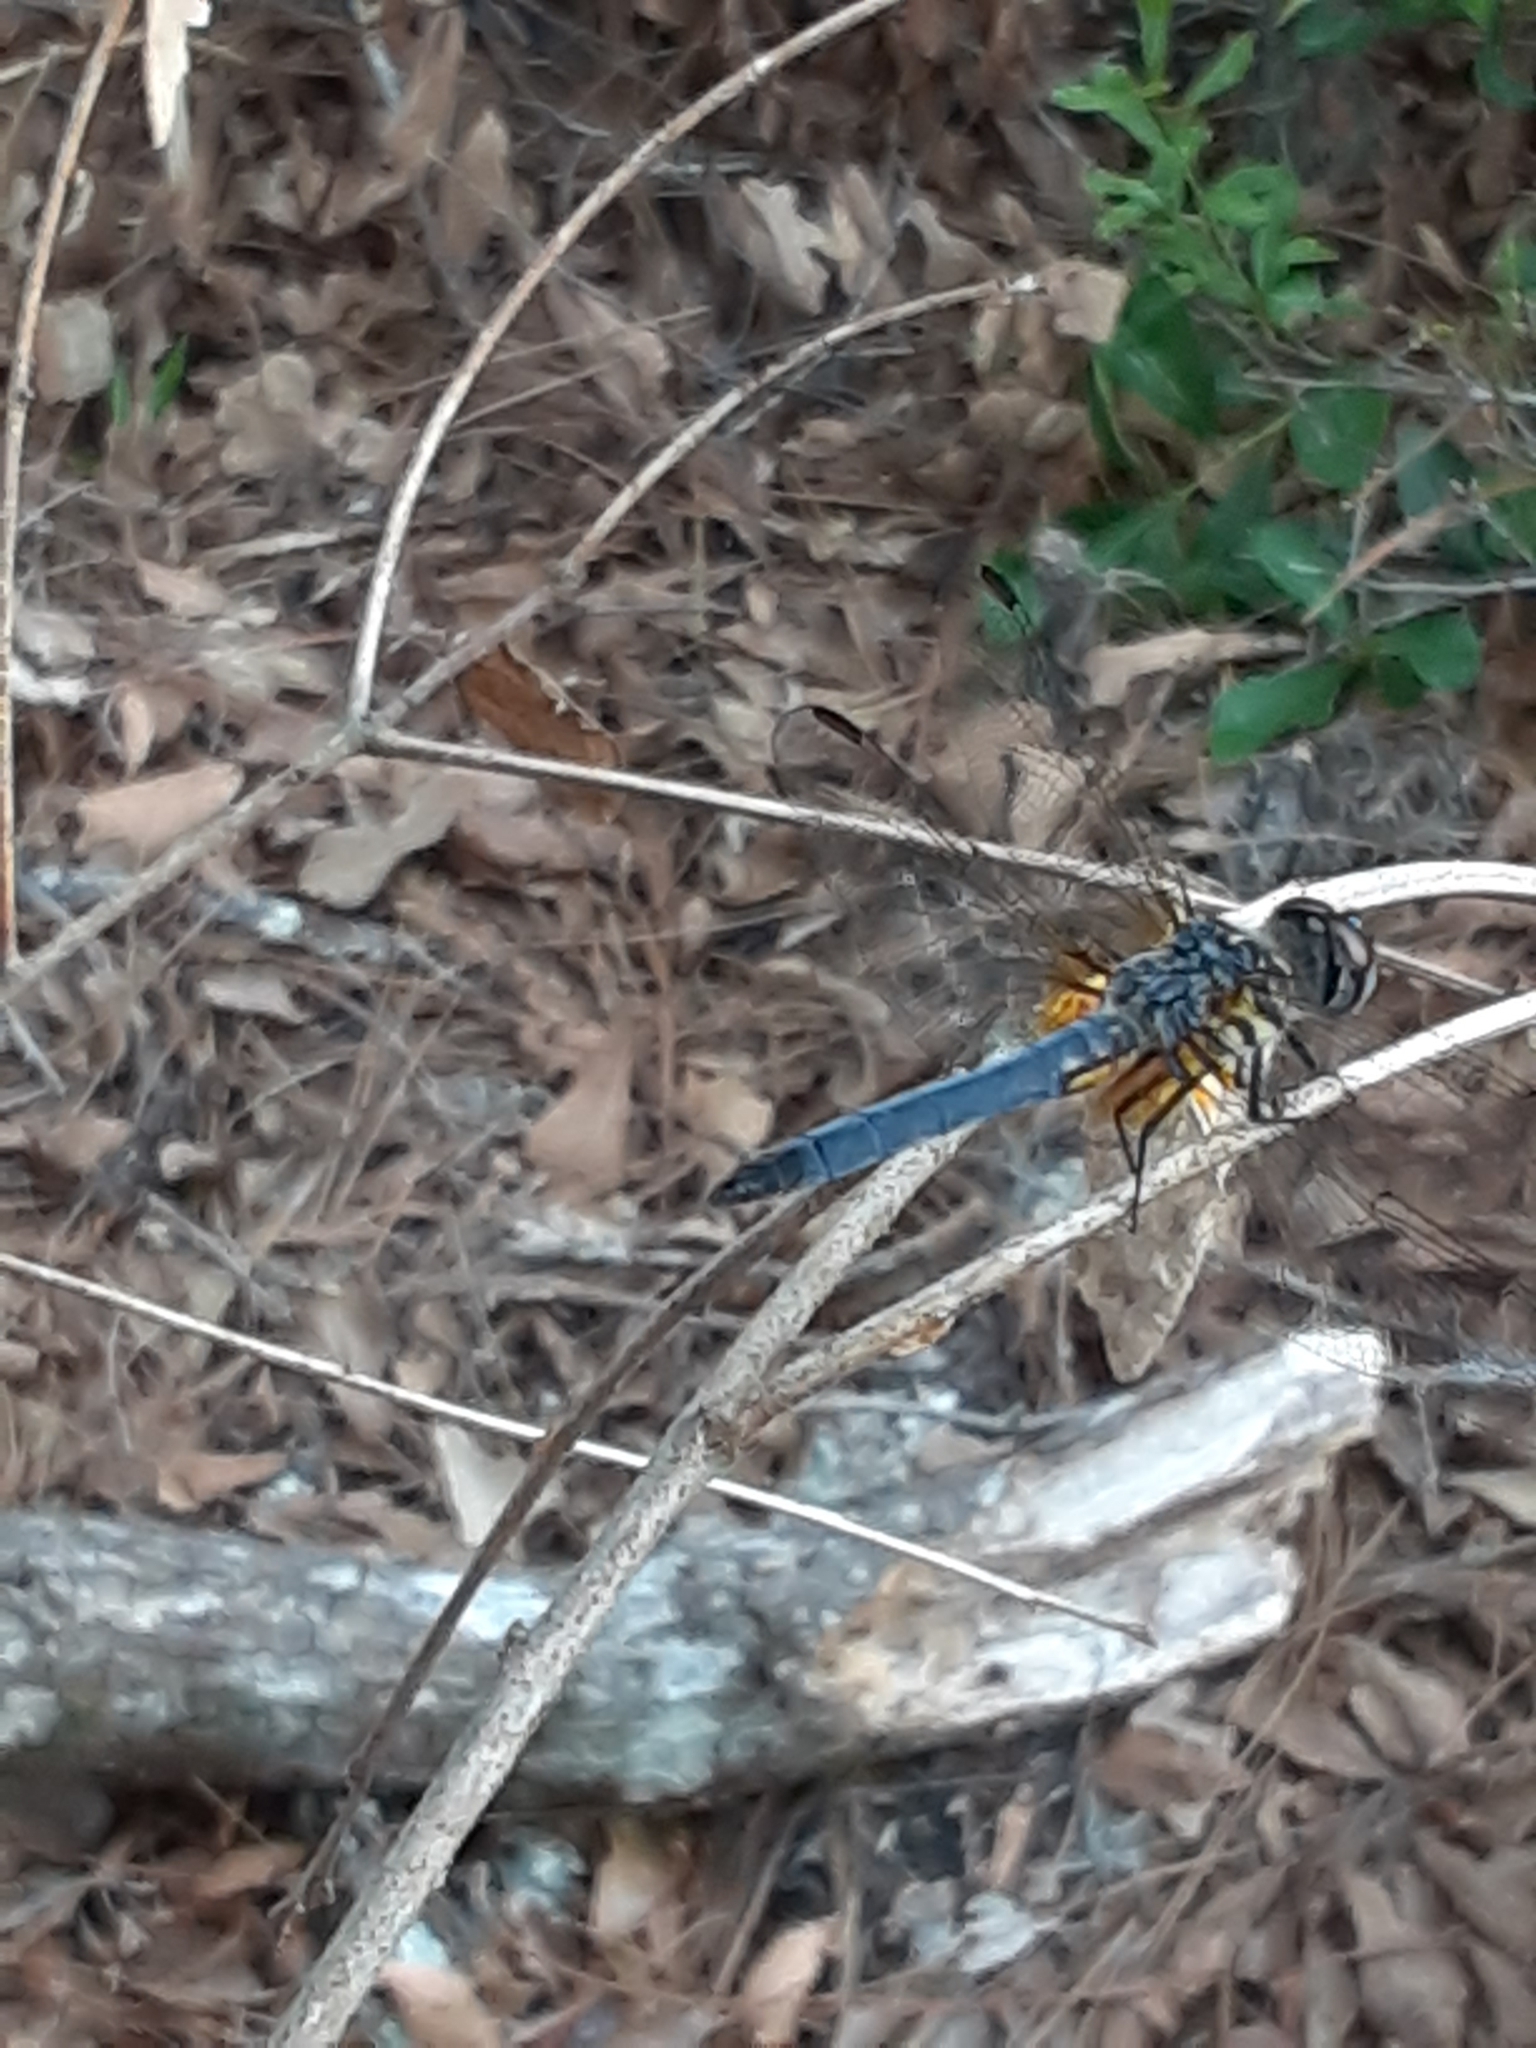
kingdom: Animalia
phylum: Arthropoda
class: Insecta
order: Odonata
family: Libellulidae
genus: Pachydiplax
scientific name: Pachydiplax longipennis
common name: Blue dasher
